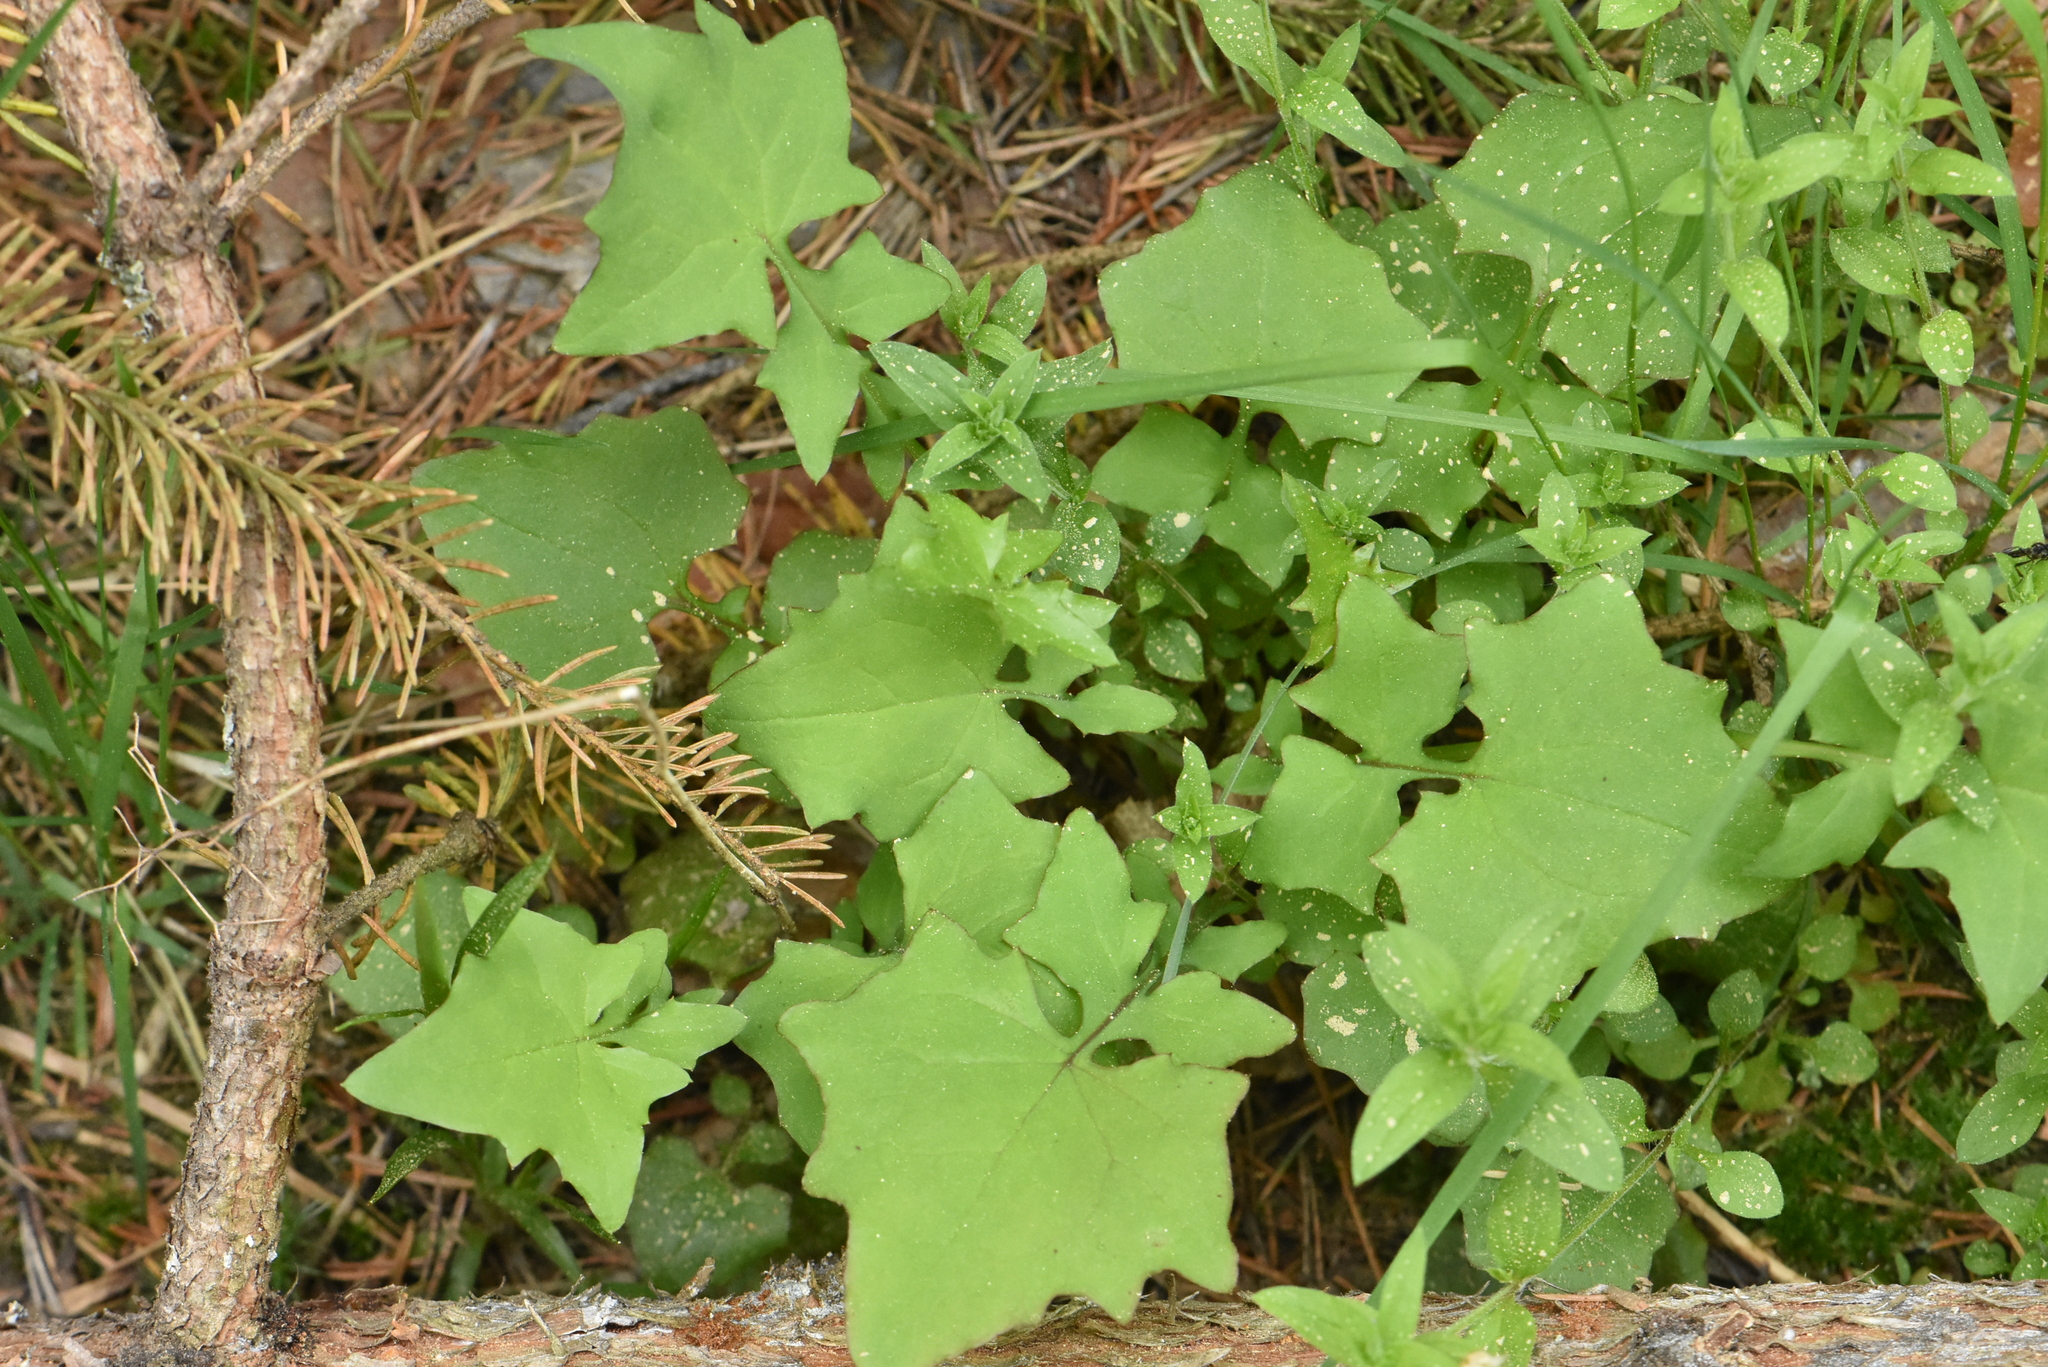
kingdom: Plantae
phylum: Tracheophyta
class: Magnoliopsida
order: Asterales
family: Asteraceae
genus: Mycelis
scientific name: Mycelis muralis
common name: Wall lettuce
